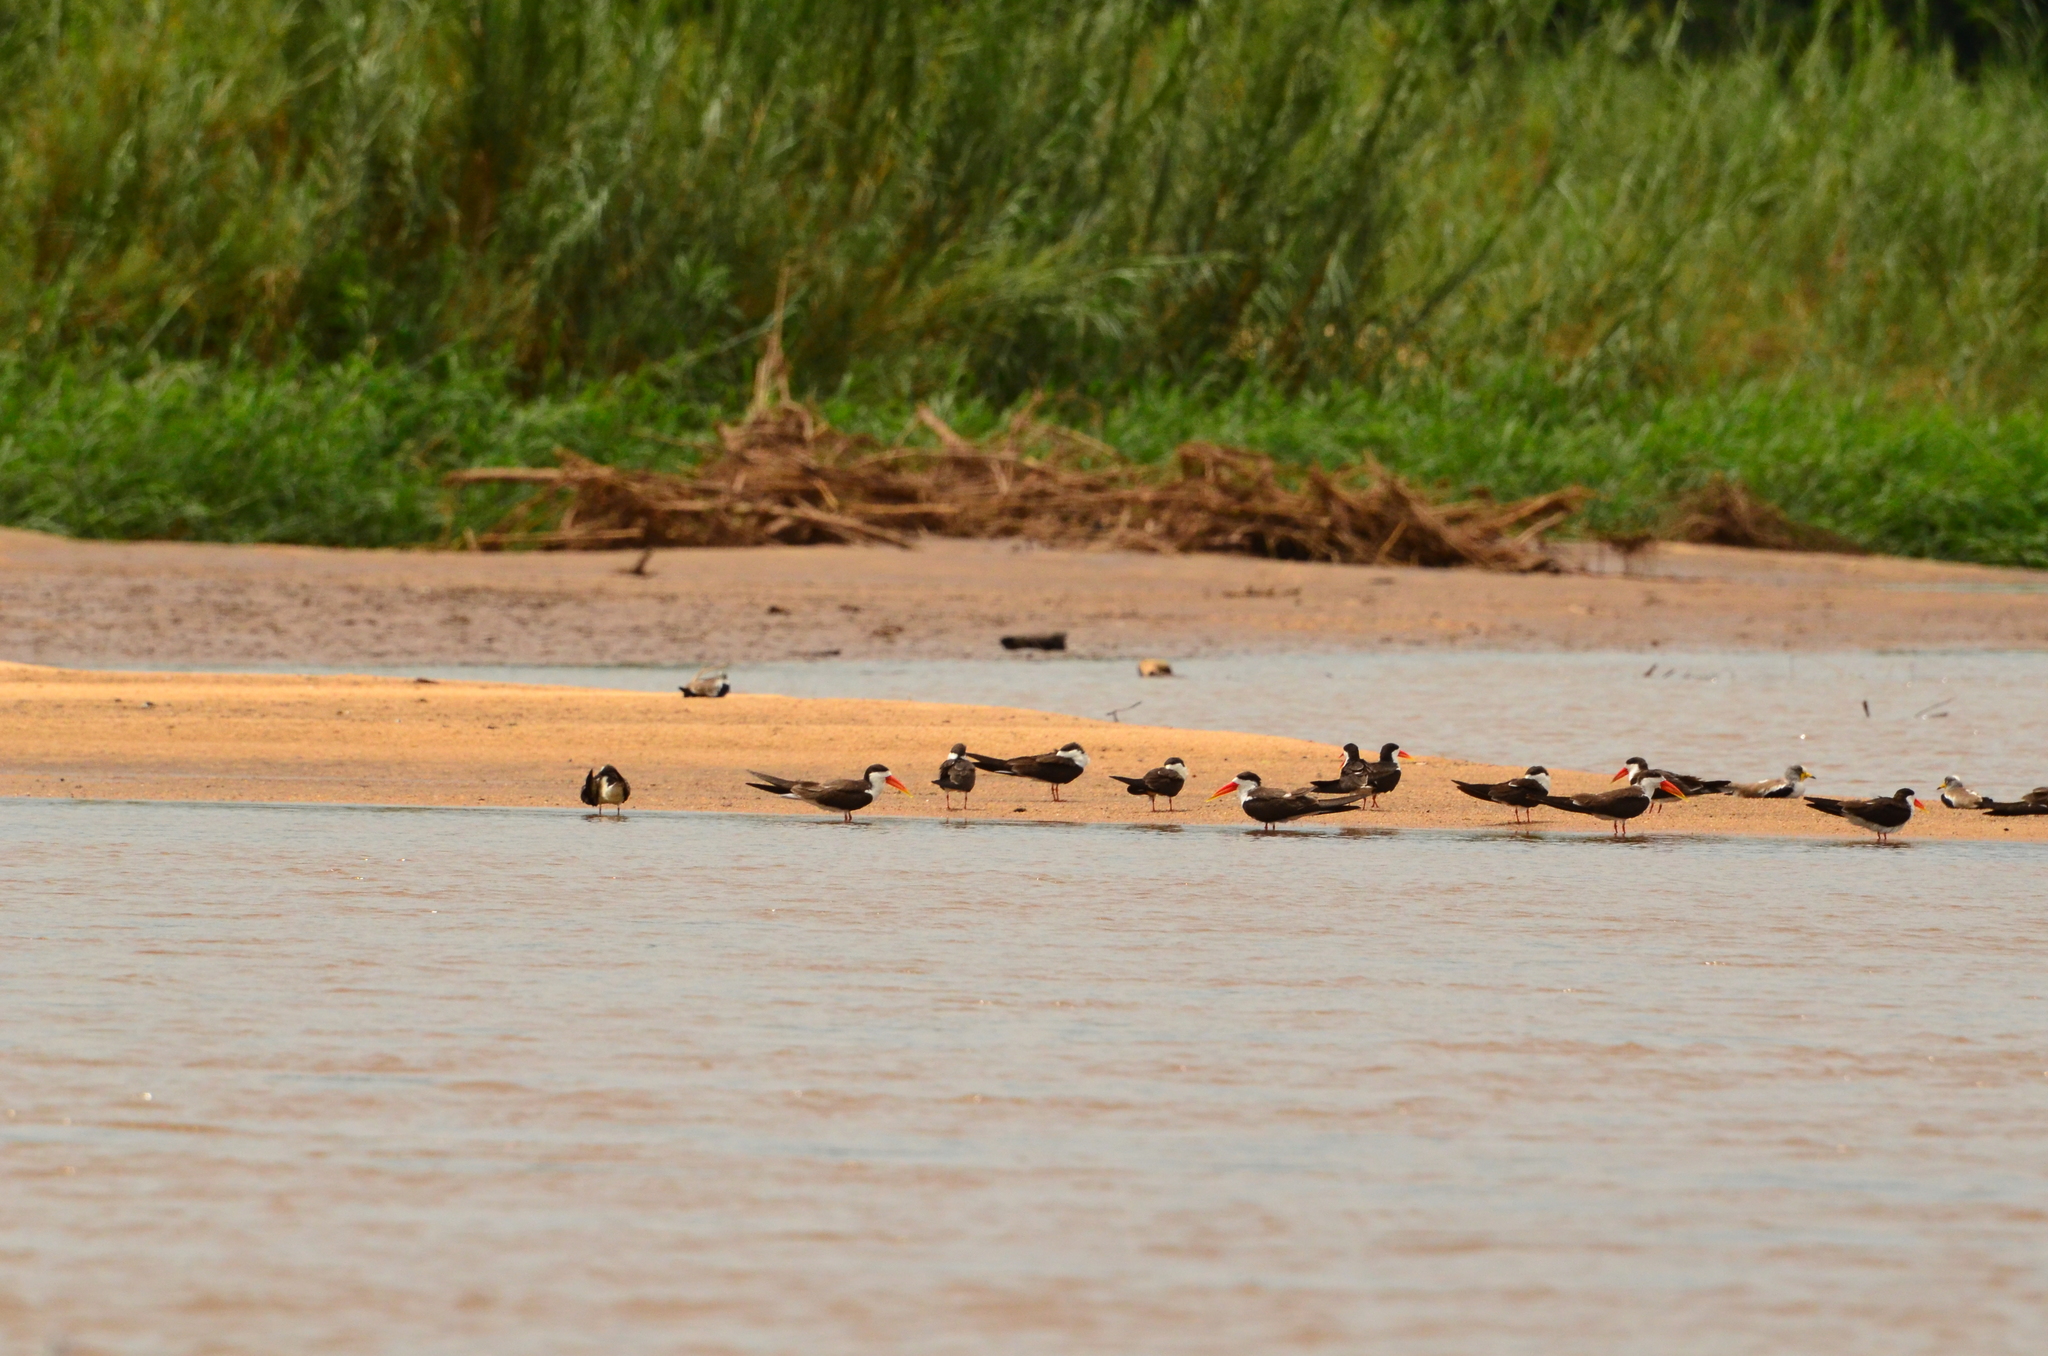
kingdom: Animalia
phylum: Chordata
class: Aves
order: Charadriiformes
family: Laridae
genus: Rynchops
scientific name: Rynchops flavirostris
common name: African skimmer
